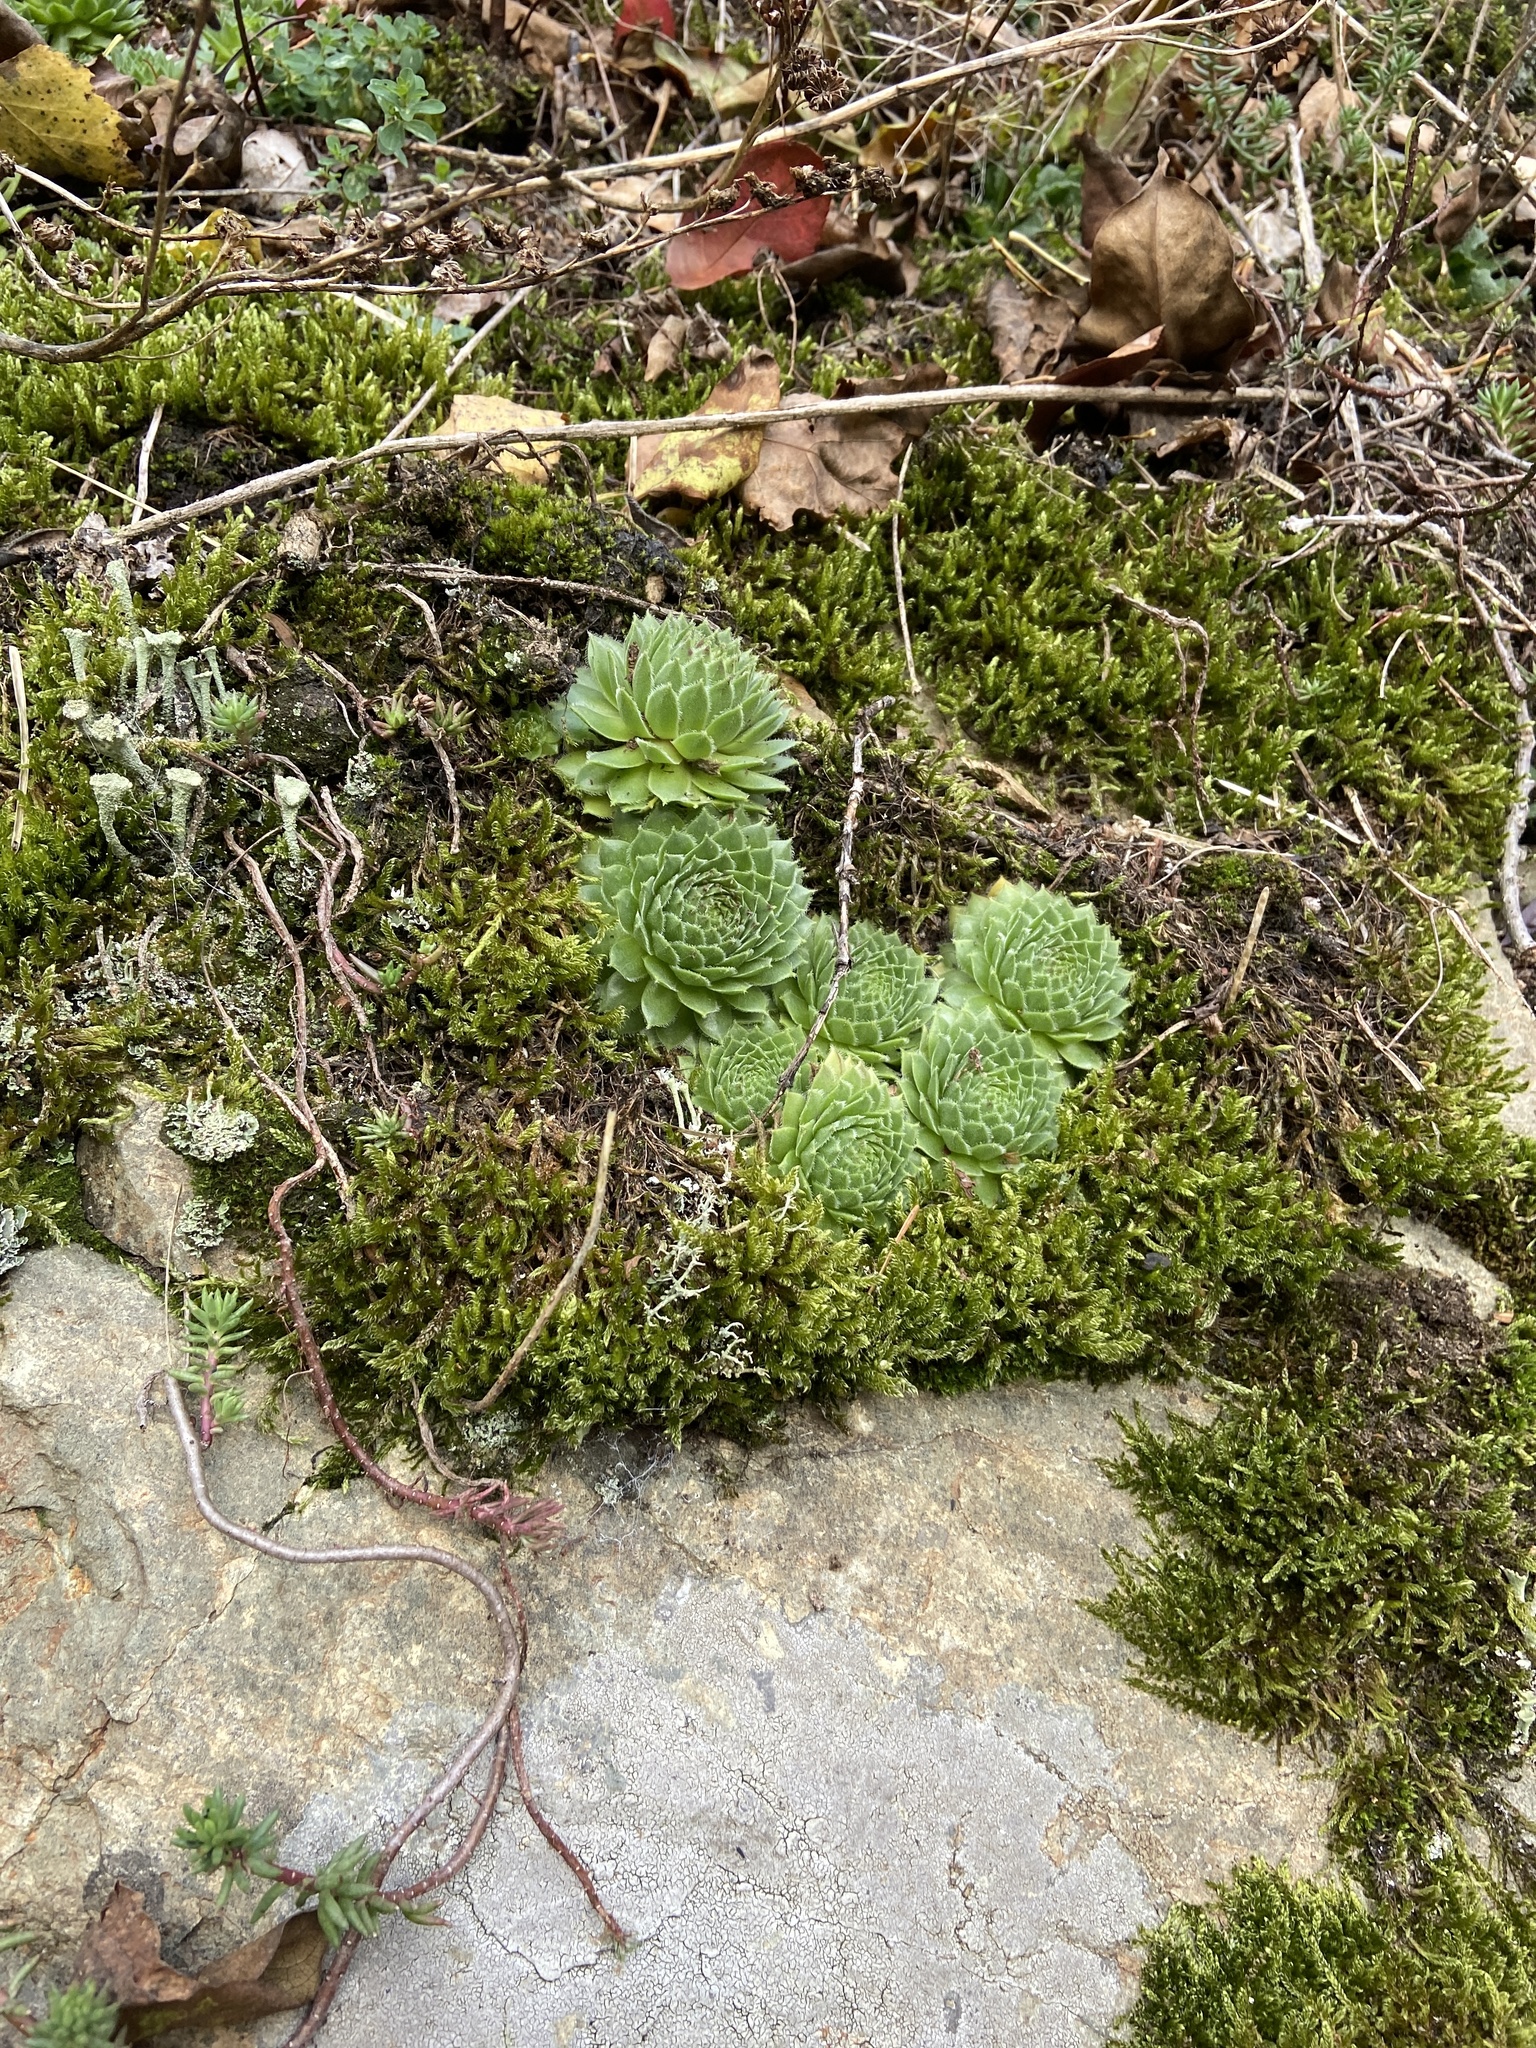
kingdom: Plantae
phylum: Tracheophyta
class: Magnoliopsida
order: Saxifragales
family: Crassulaceae
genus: Sempervivum
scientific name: Sempervivum globiferum
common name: Rolling hen-and-chicks
